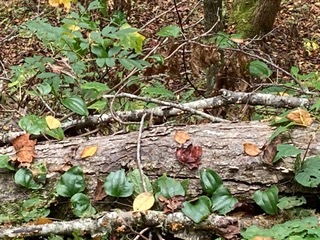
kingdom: Plantae
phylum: Tracheophyta
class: Liliopsida
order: Liliales
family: Smilacaceae
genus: Smilax
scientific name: Smilax glauca
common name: Cat greenbrier
